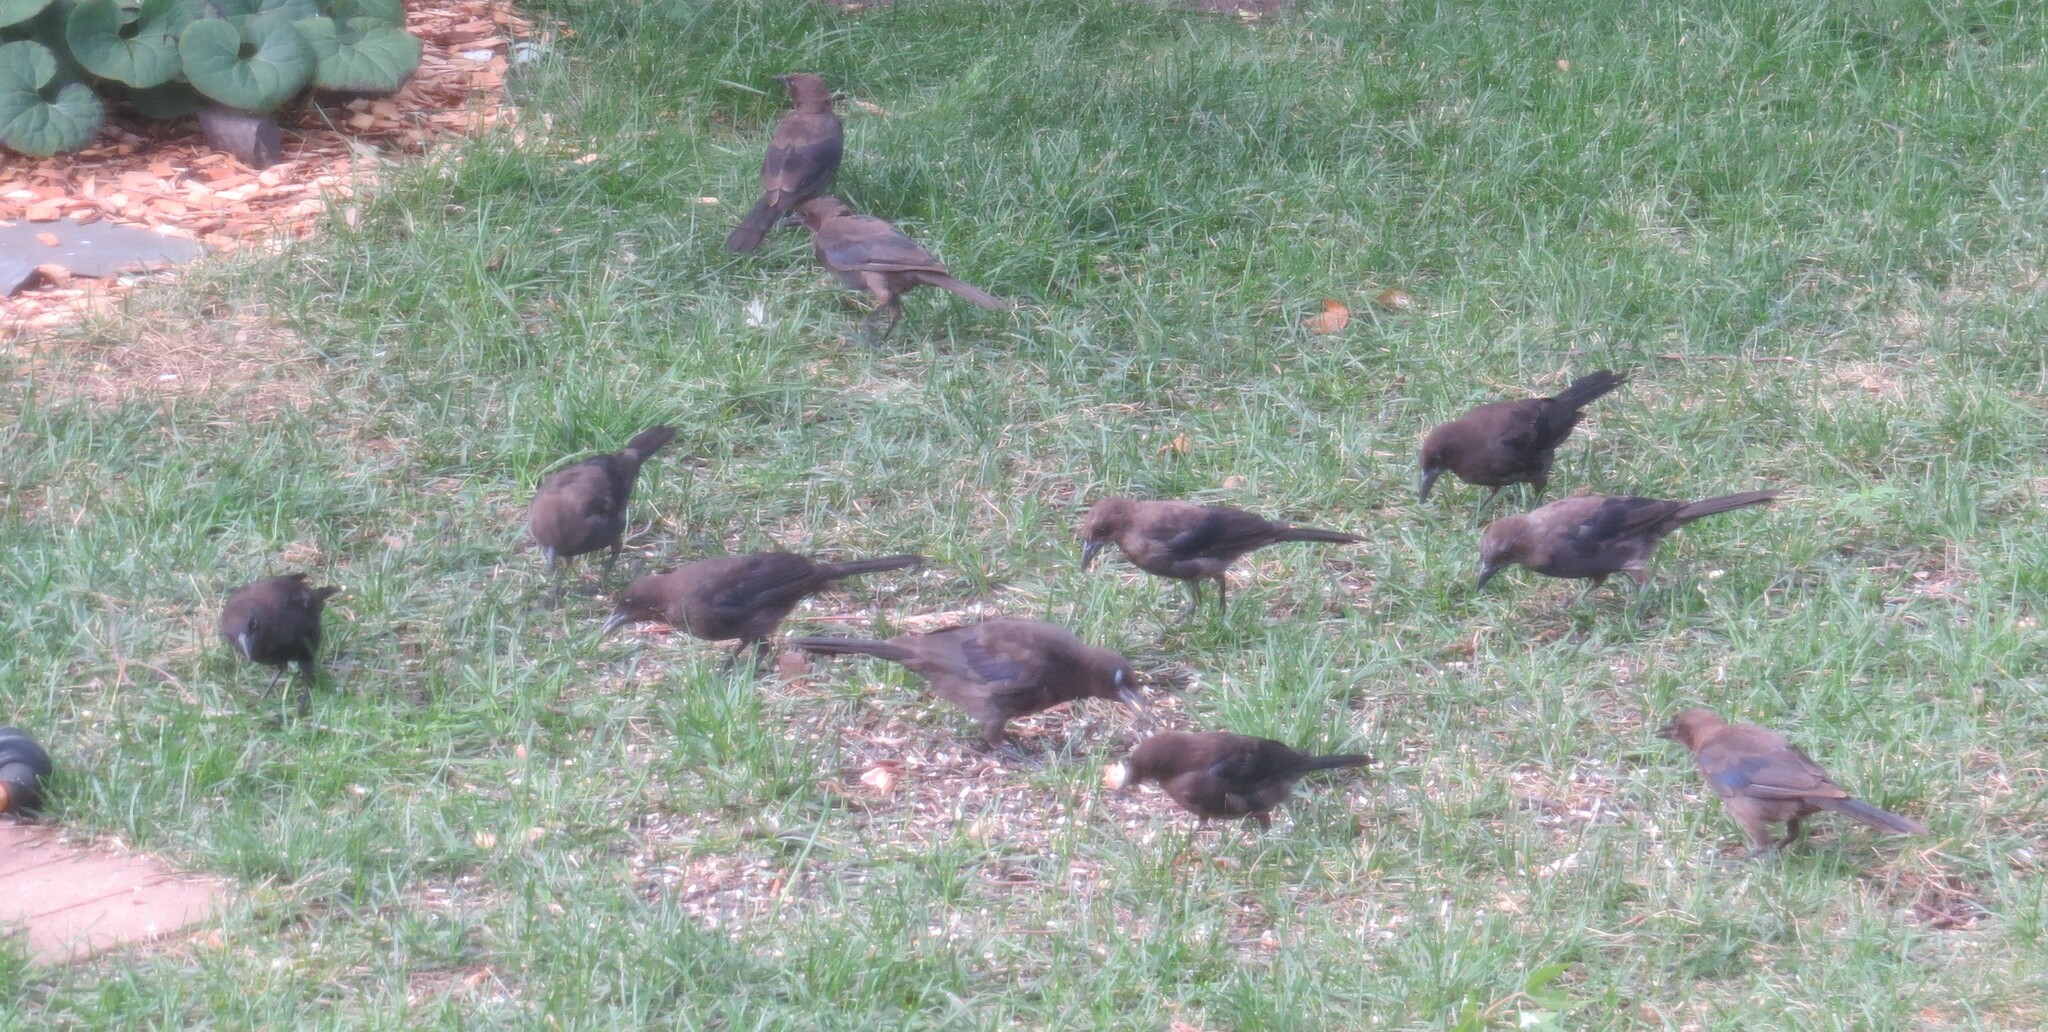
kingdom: Animalia
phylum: Chordata
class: Aves
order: Passeriformes
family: Icteridae
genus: Quiscalus
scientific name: Quiscalus quiscula
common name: Common grackle
